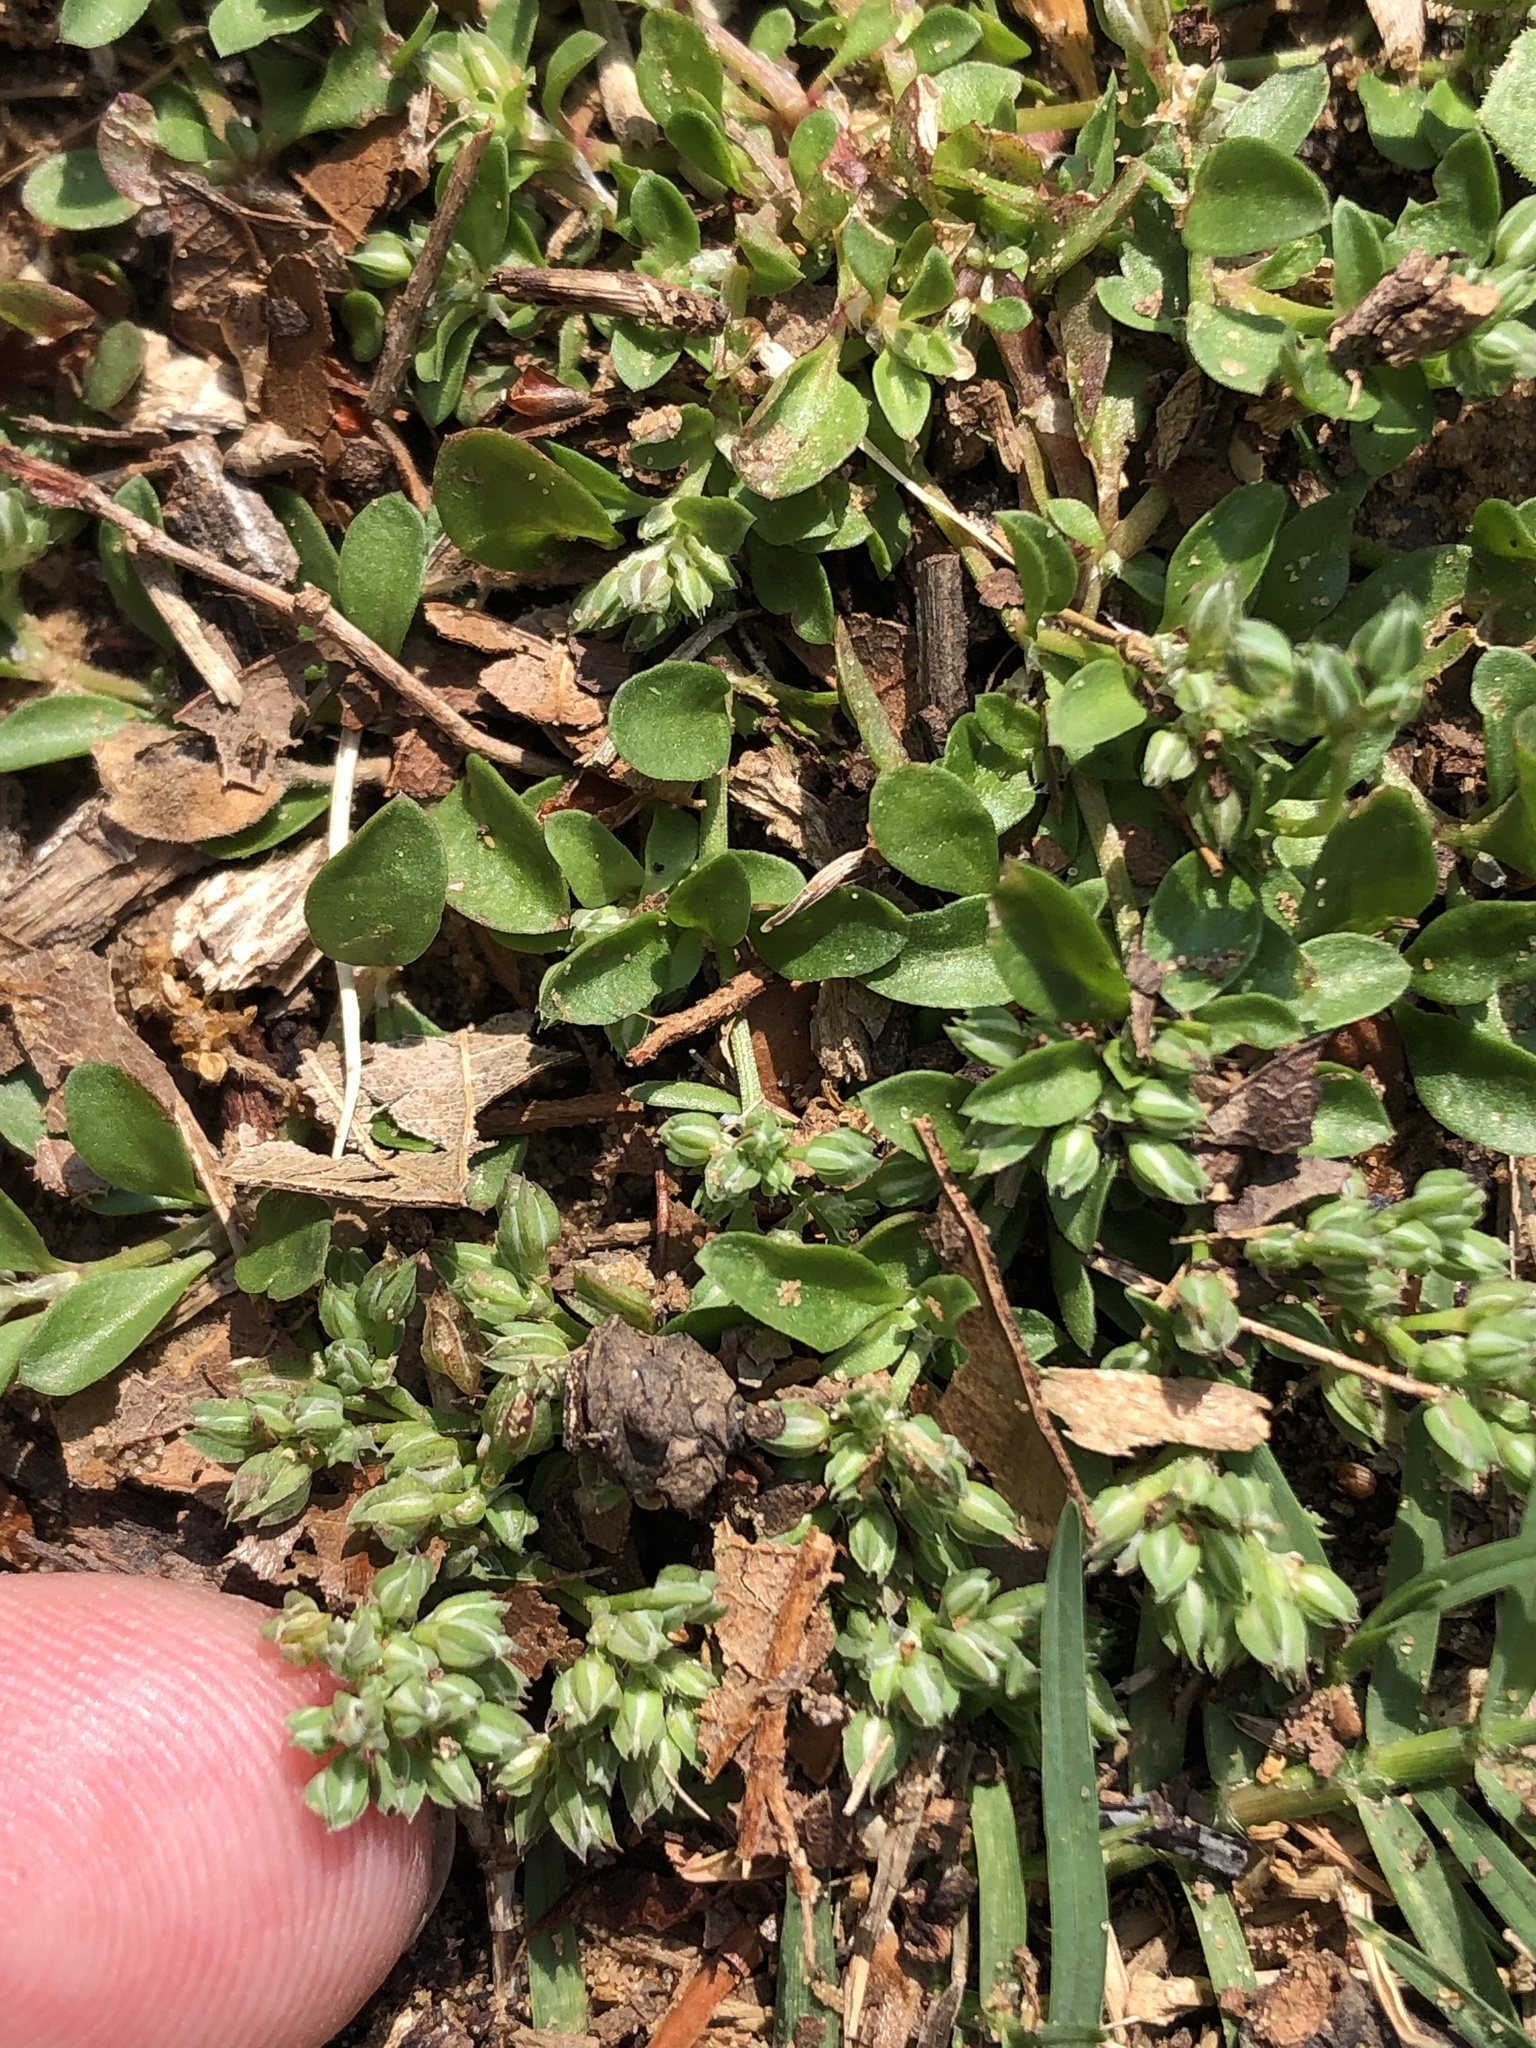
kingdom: Plantae
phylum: Tracheophyta
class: Magnoliopsida
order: Caryophyllales
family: Caryophyllaceae
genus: Polycarpon
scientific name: Polycarpon tetraphyllum
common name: Four-leaved all-seed
